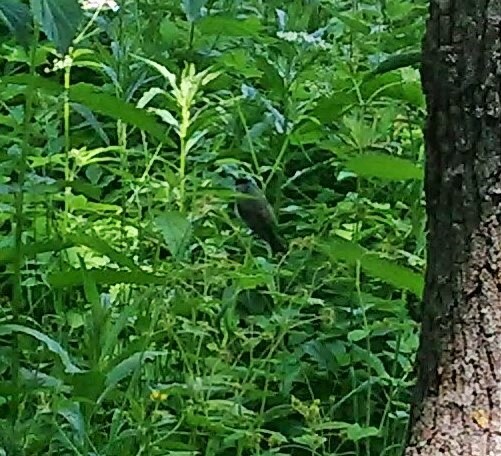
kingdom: Animalia
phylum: Chordata
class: Aves
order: Passeriformes
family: Sylviidae
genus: Sylvia
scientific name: Sylvia atricapilla
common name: Eurasian blackcap
